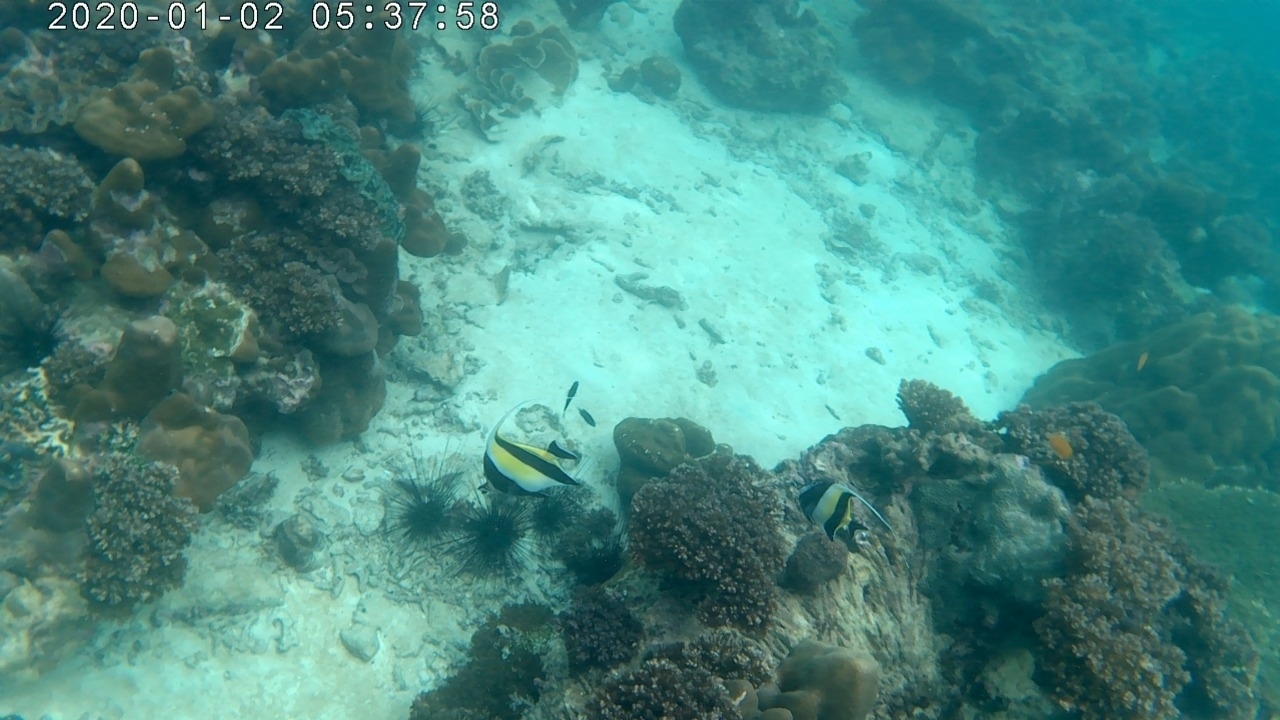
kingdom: Animalia
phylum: Chordata
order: Perciformes
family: Zanclidae
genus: Zanclus
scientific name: Zanclus cornutus
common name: Moorish idol
